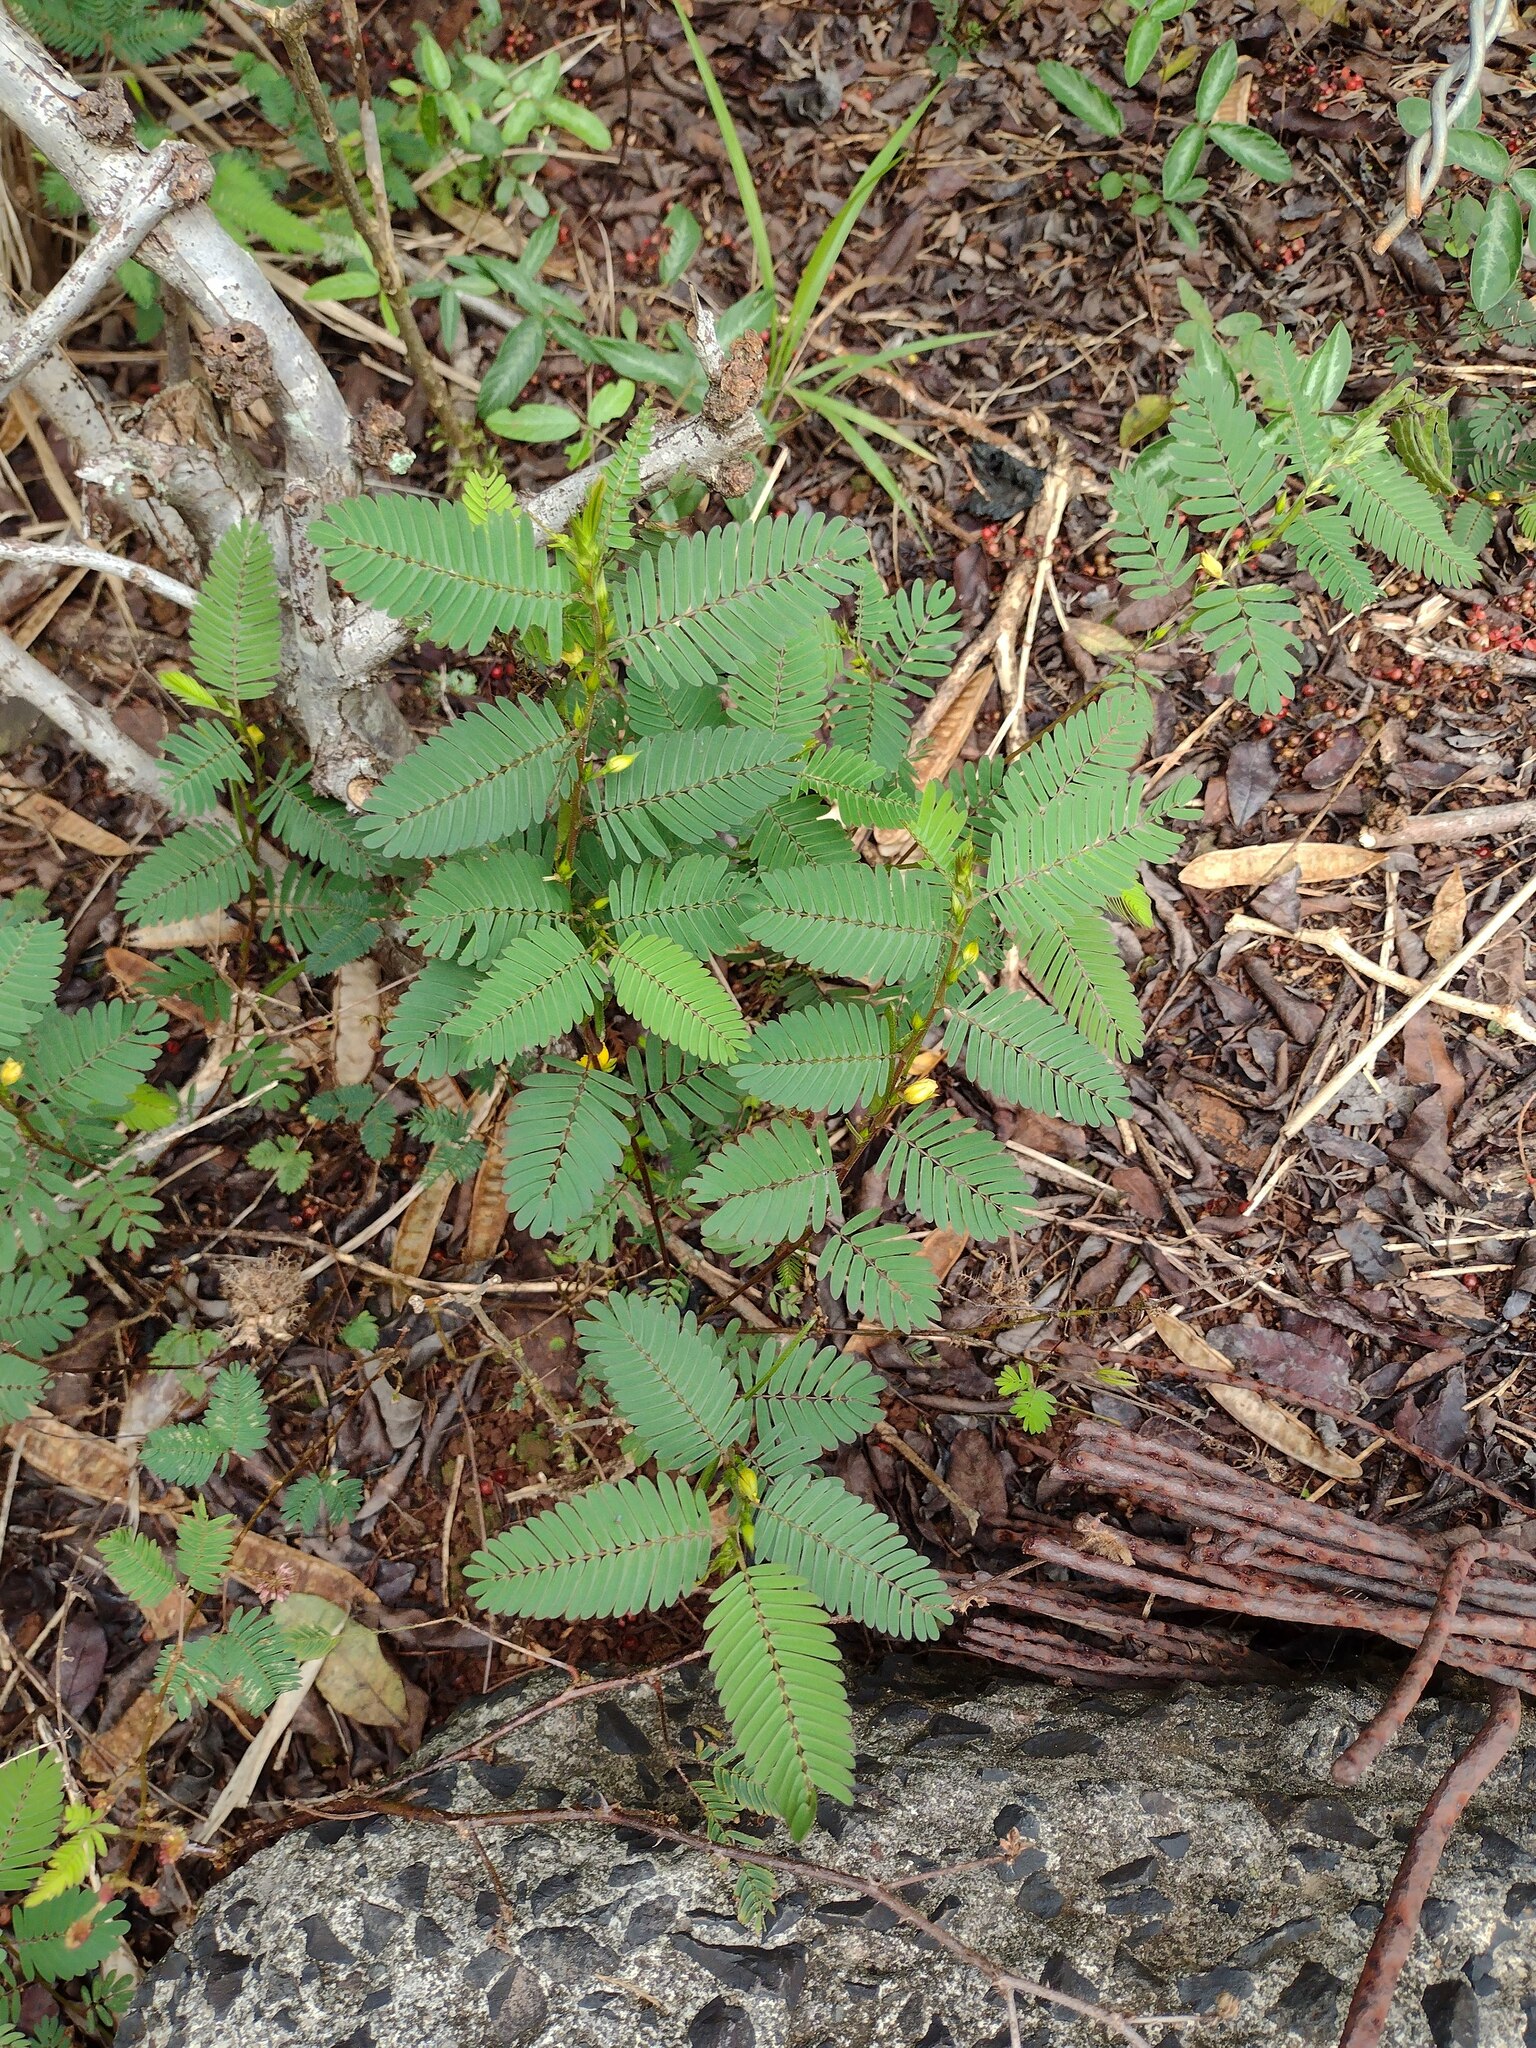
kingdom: Plantae
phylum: Tracheophyta
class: Magnoliopsida
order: Fabales
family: Fabaceae
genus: Chamaecrista
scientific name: Chamaecrista nictitans
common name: Sensitive cassia
